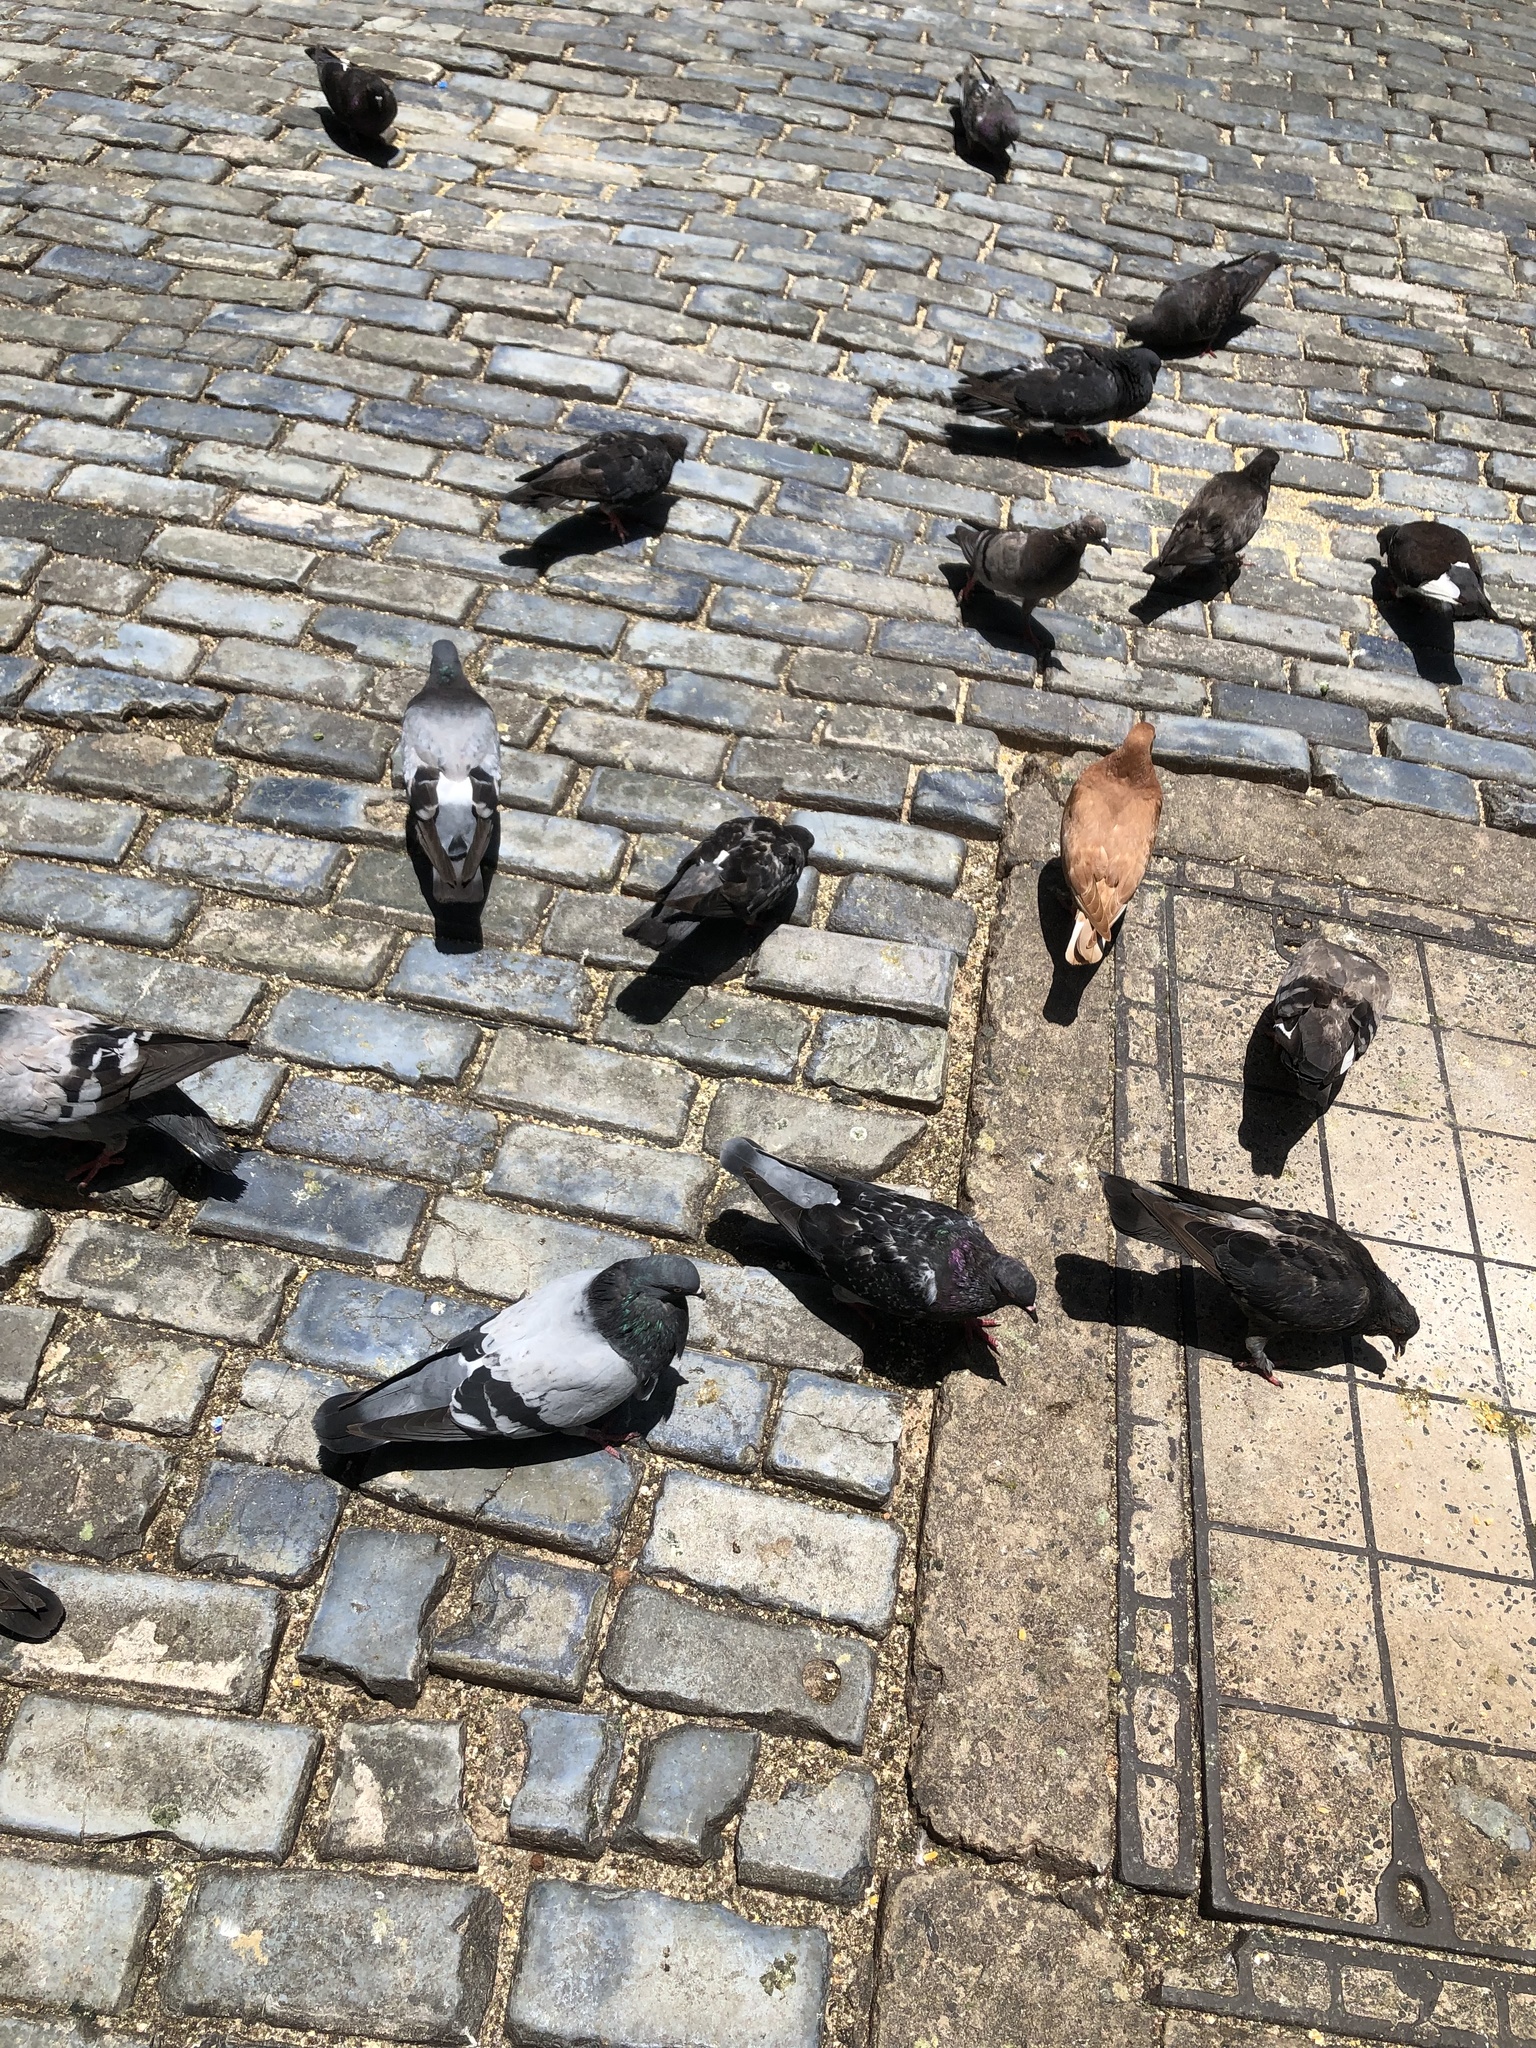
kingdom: Animalia
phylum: Chordata
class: Aves
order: Columbiformes
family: Columbidae
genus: Columba
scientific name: Columba livia
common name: Rock pigeon
